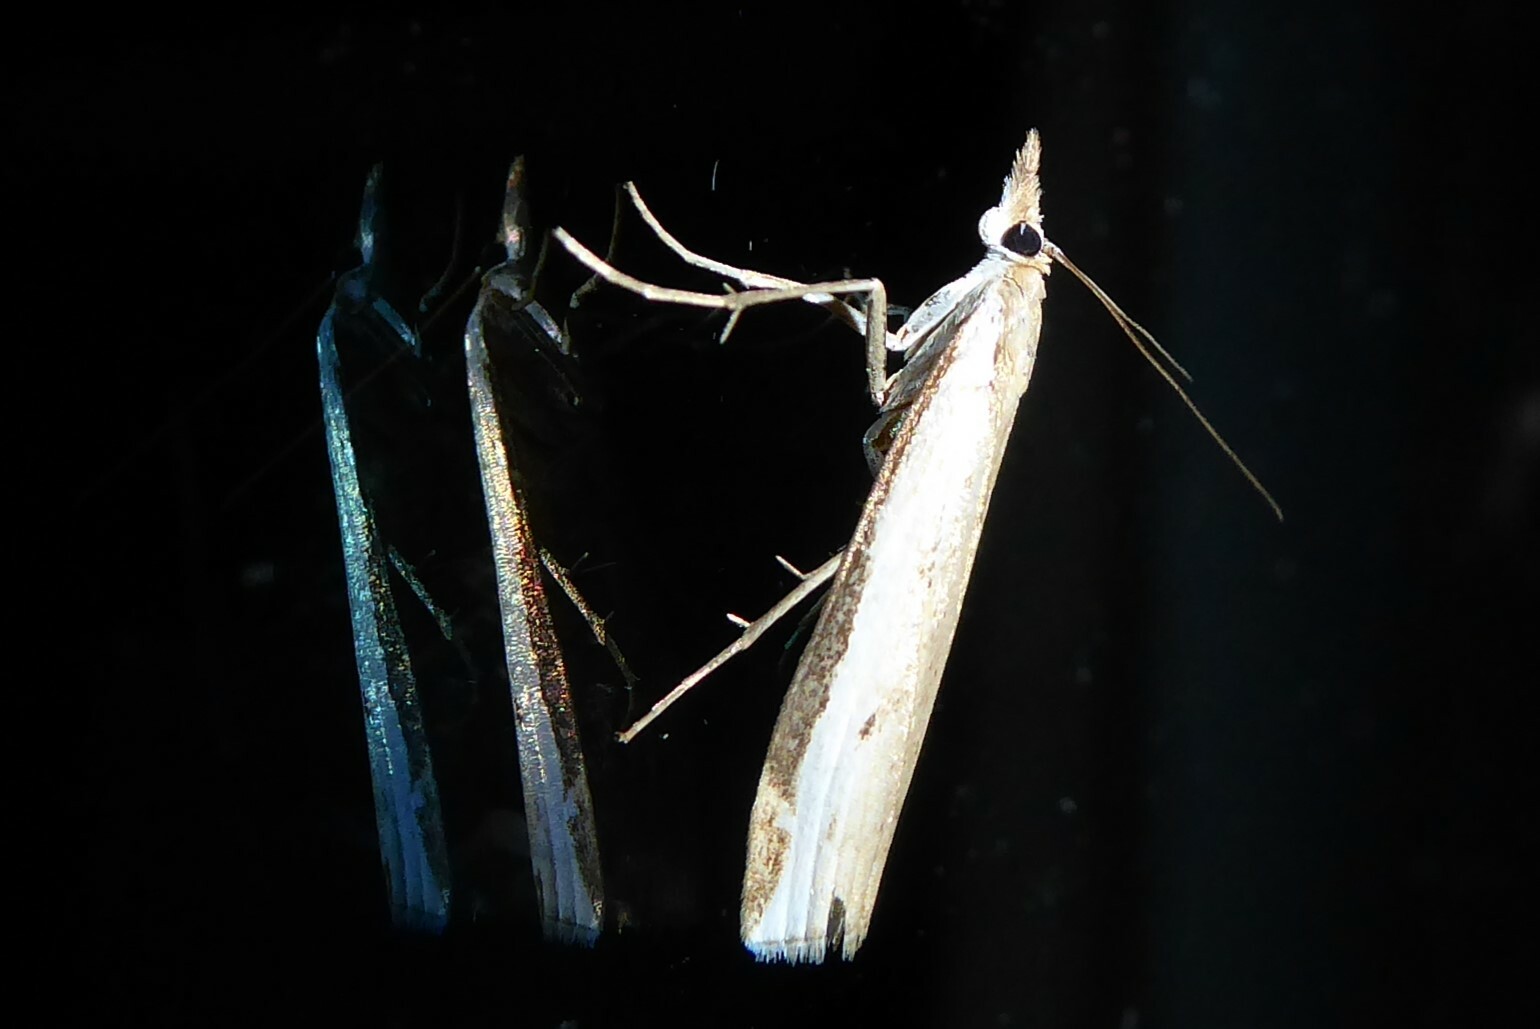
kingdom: Animalia
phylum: Arthropoda
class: Insecta
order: Lepidoptera
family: Crambidae
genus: Orocrambus
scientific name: Orocrambus flexuosellus
